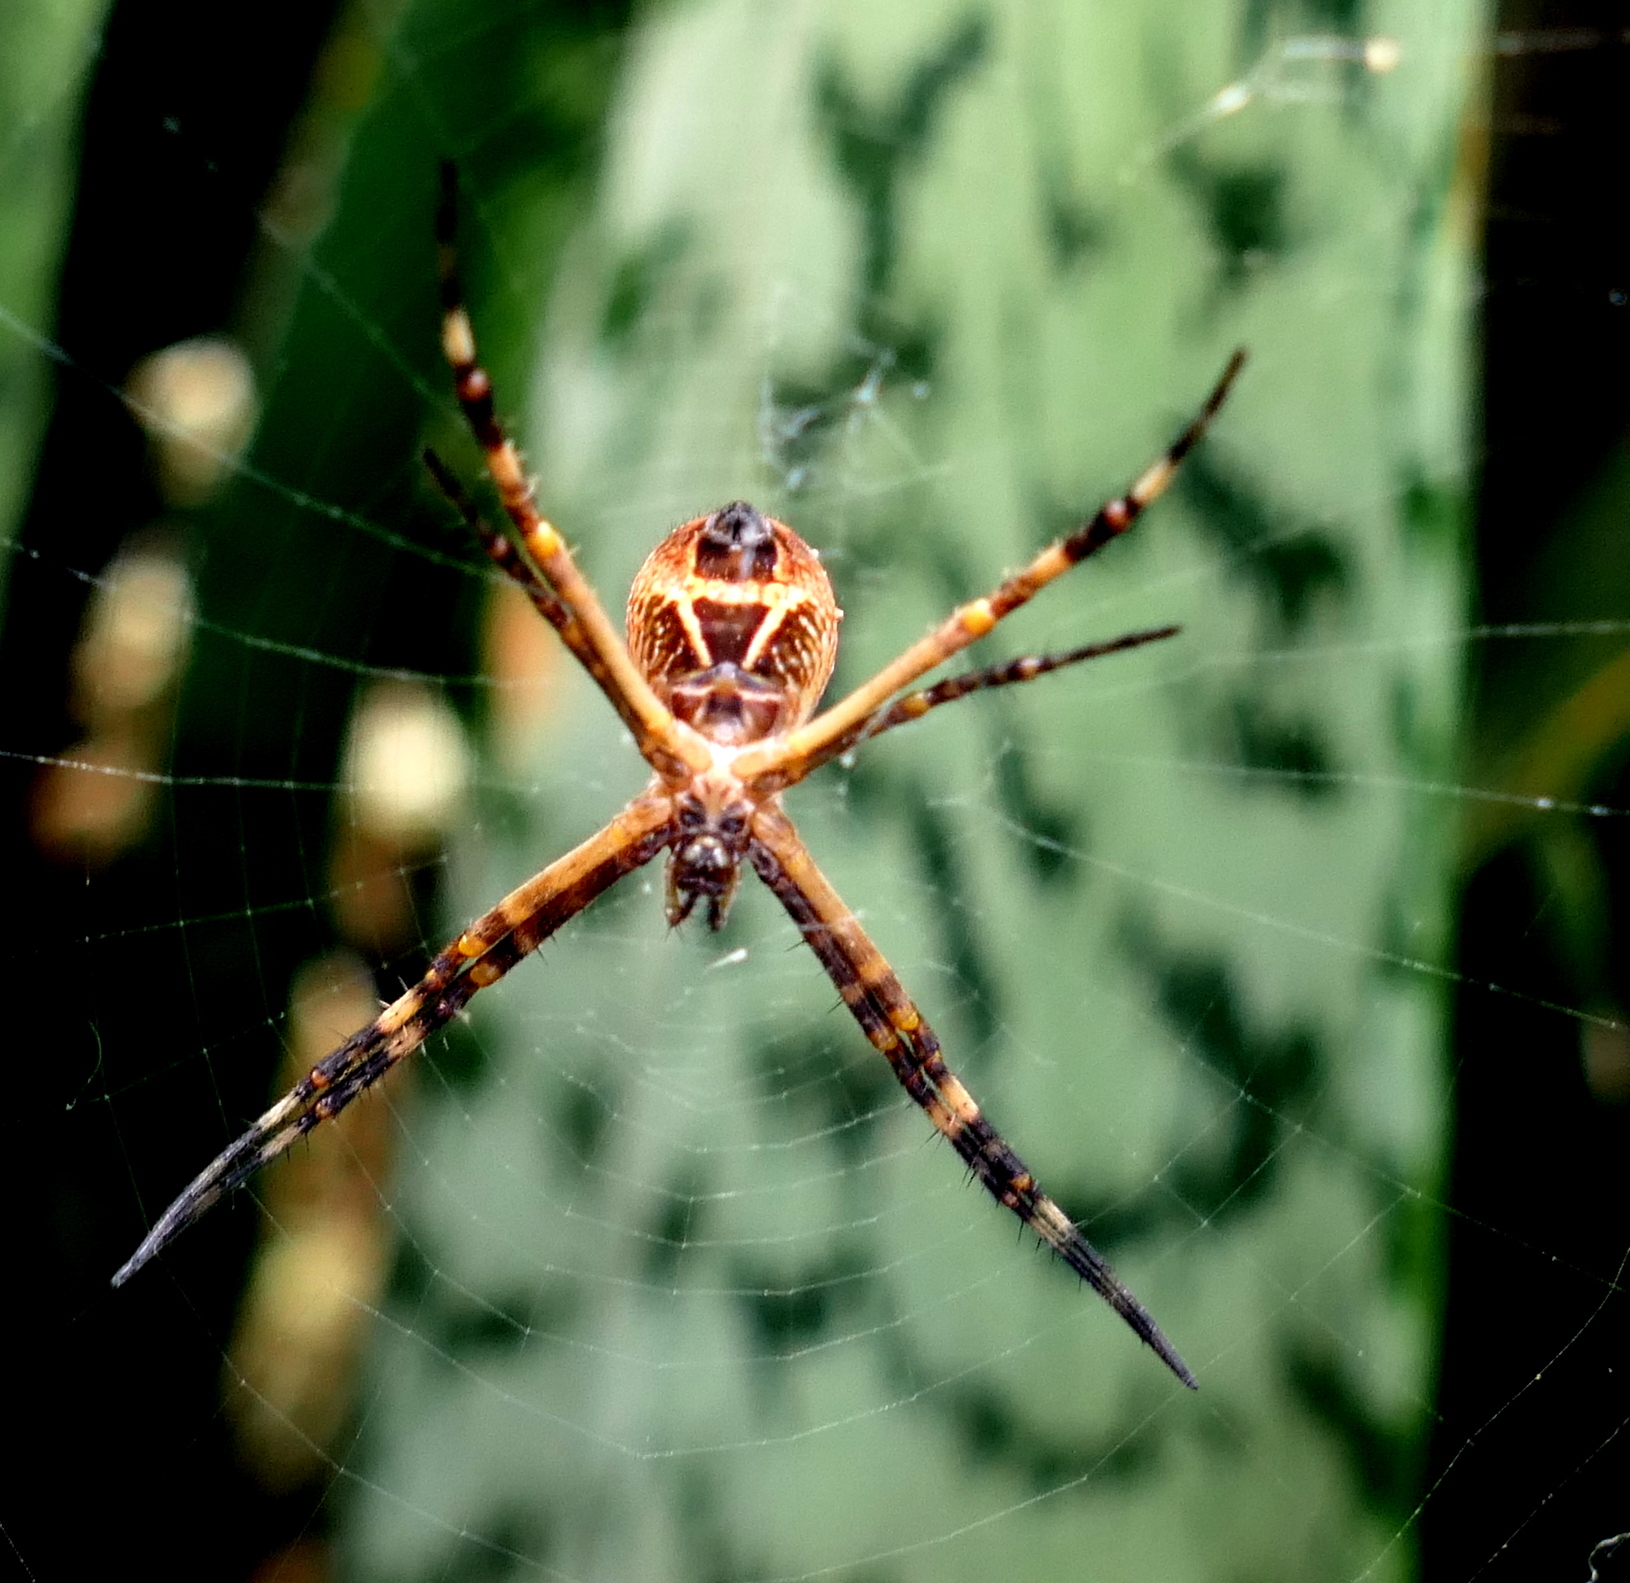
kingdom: Animalia
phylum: Arthropoda
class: Arachnida
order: Araneae
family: Araneidae
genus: Argiope
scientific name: Argiope argentata
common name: Orb weavers
